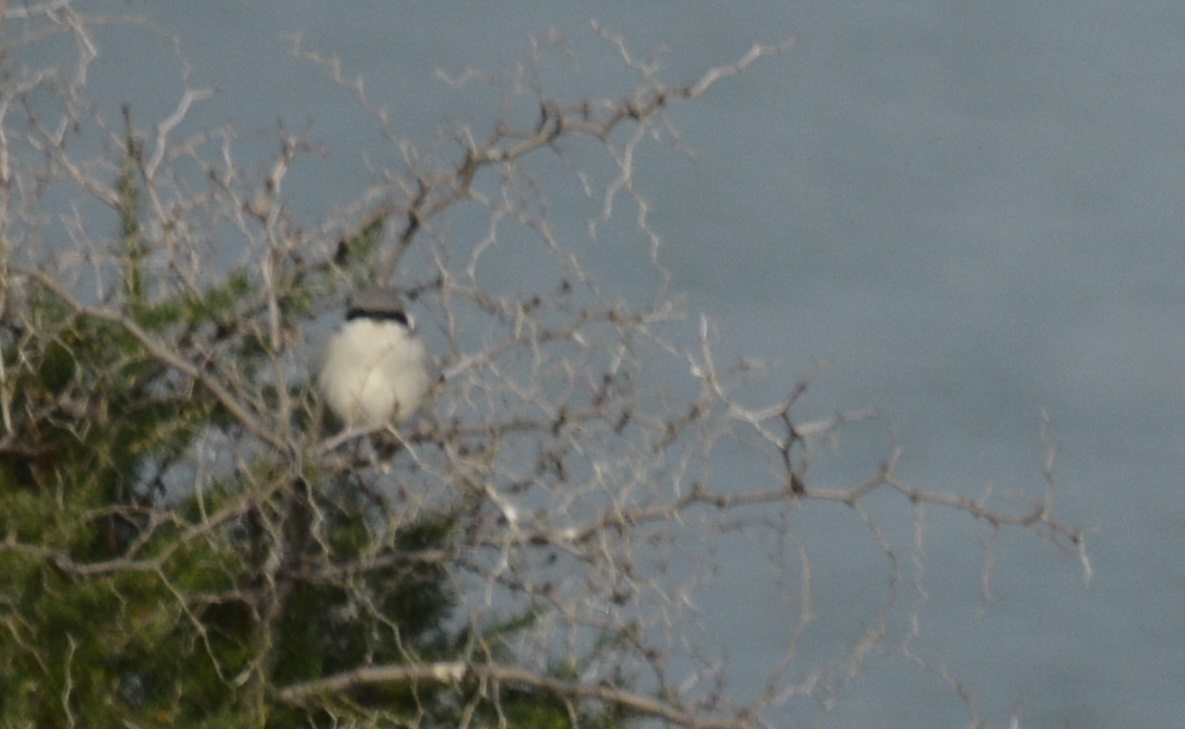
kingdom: Animalia
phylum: Chordata
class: Aves
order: Passeriformes
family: Laniidae
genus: Lanius
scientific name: Lanius excubitor
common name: Great grey shrike
